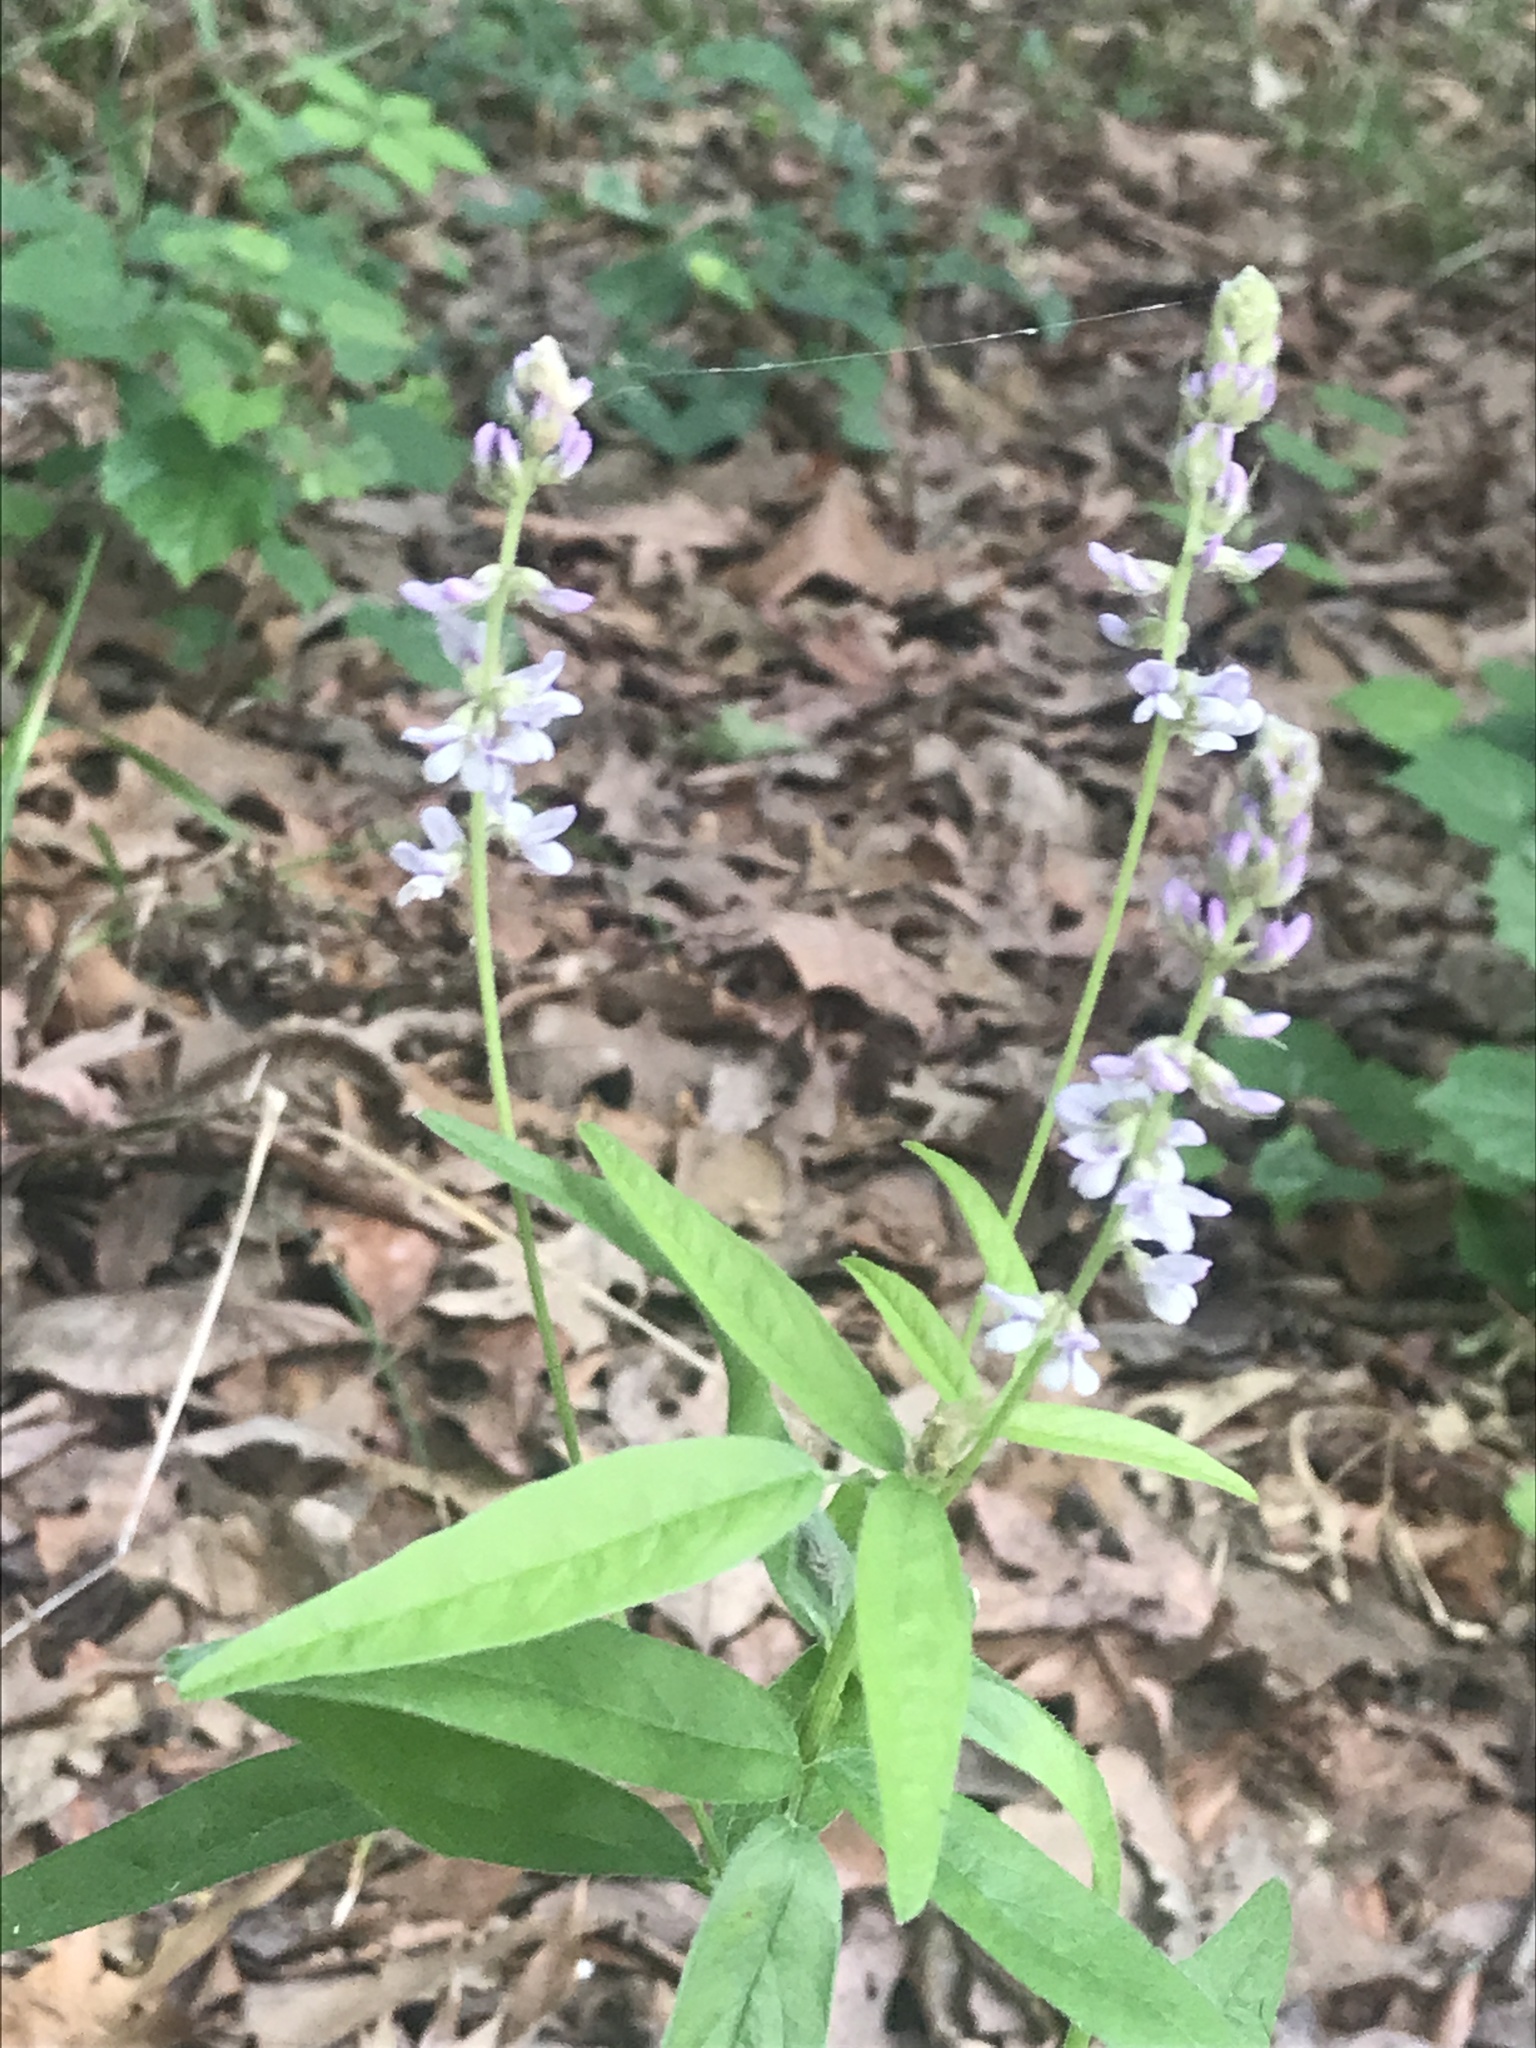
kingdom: Plantae
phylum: Tracheophyta
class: Magnoliopsida
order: Fabales
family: Fabaceae
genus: Orbexilum
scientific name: Orbexilum pedunculatum
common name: Sampson's snakeroot
